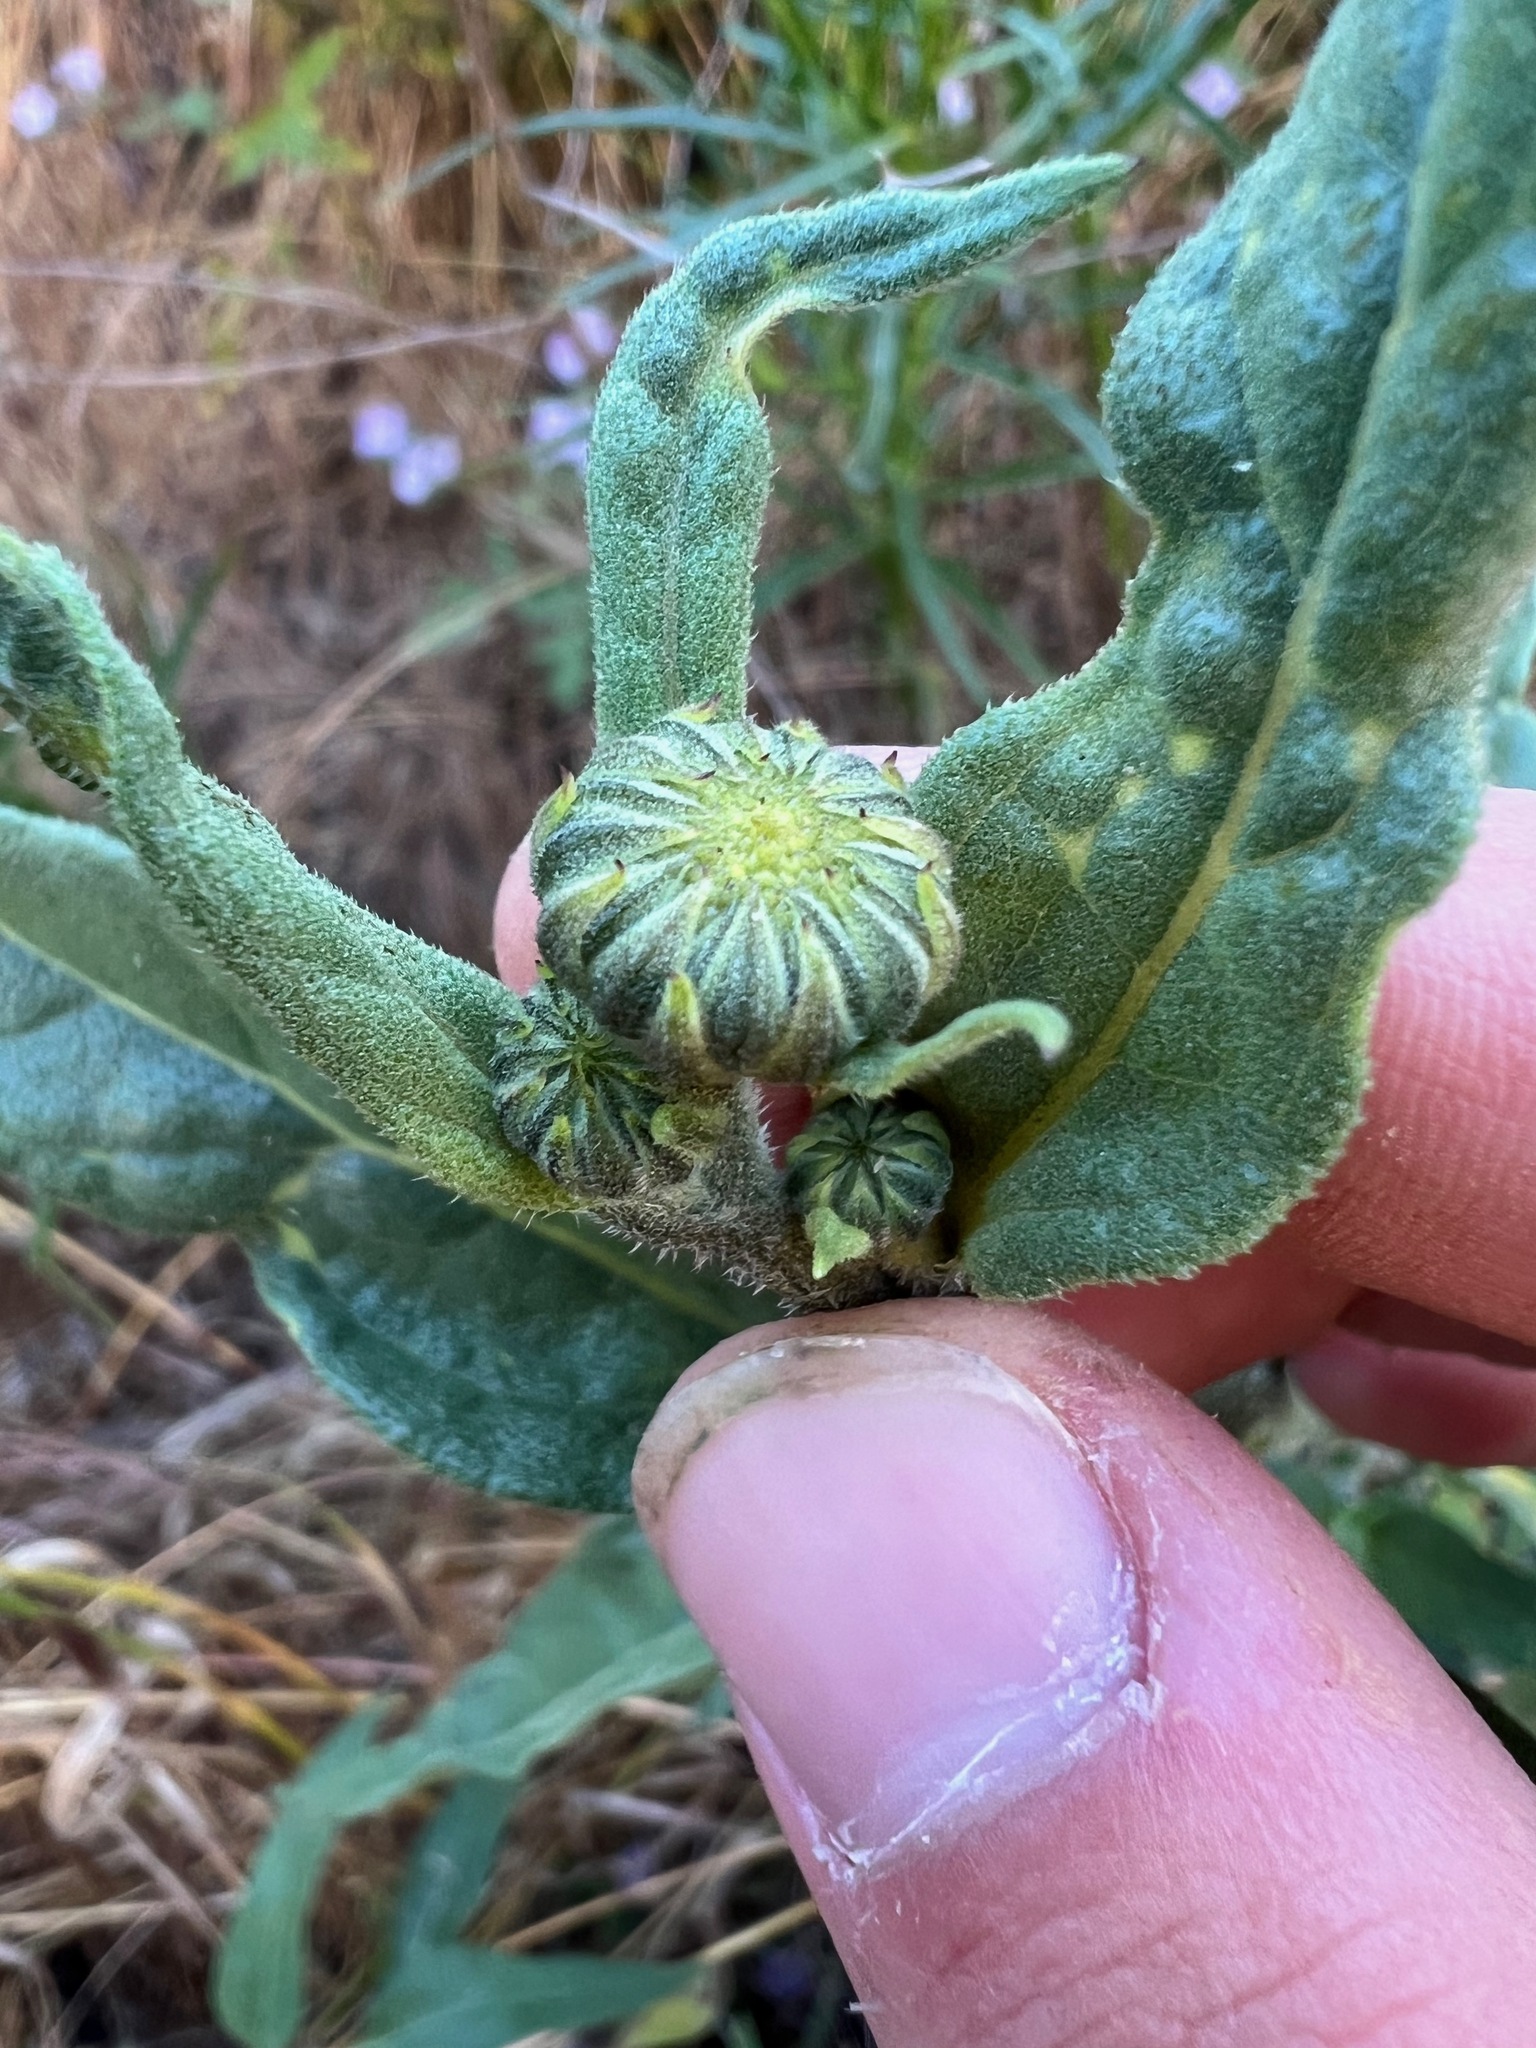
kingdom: Plantae
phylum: Tracheophyta
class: Magnoliopsida
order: Asterales
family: Asteraceae
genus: Helianthus
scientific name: Helianthus gracilentus
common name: Slender sunflower
